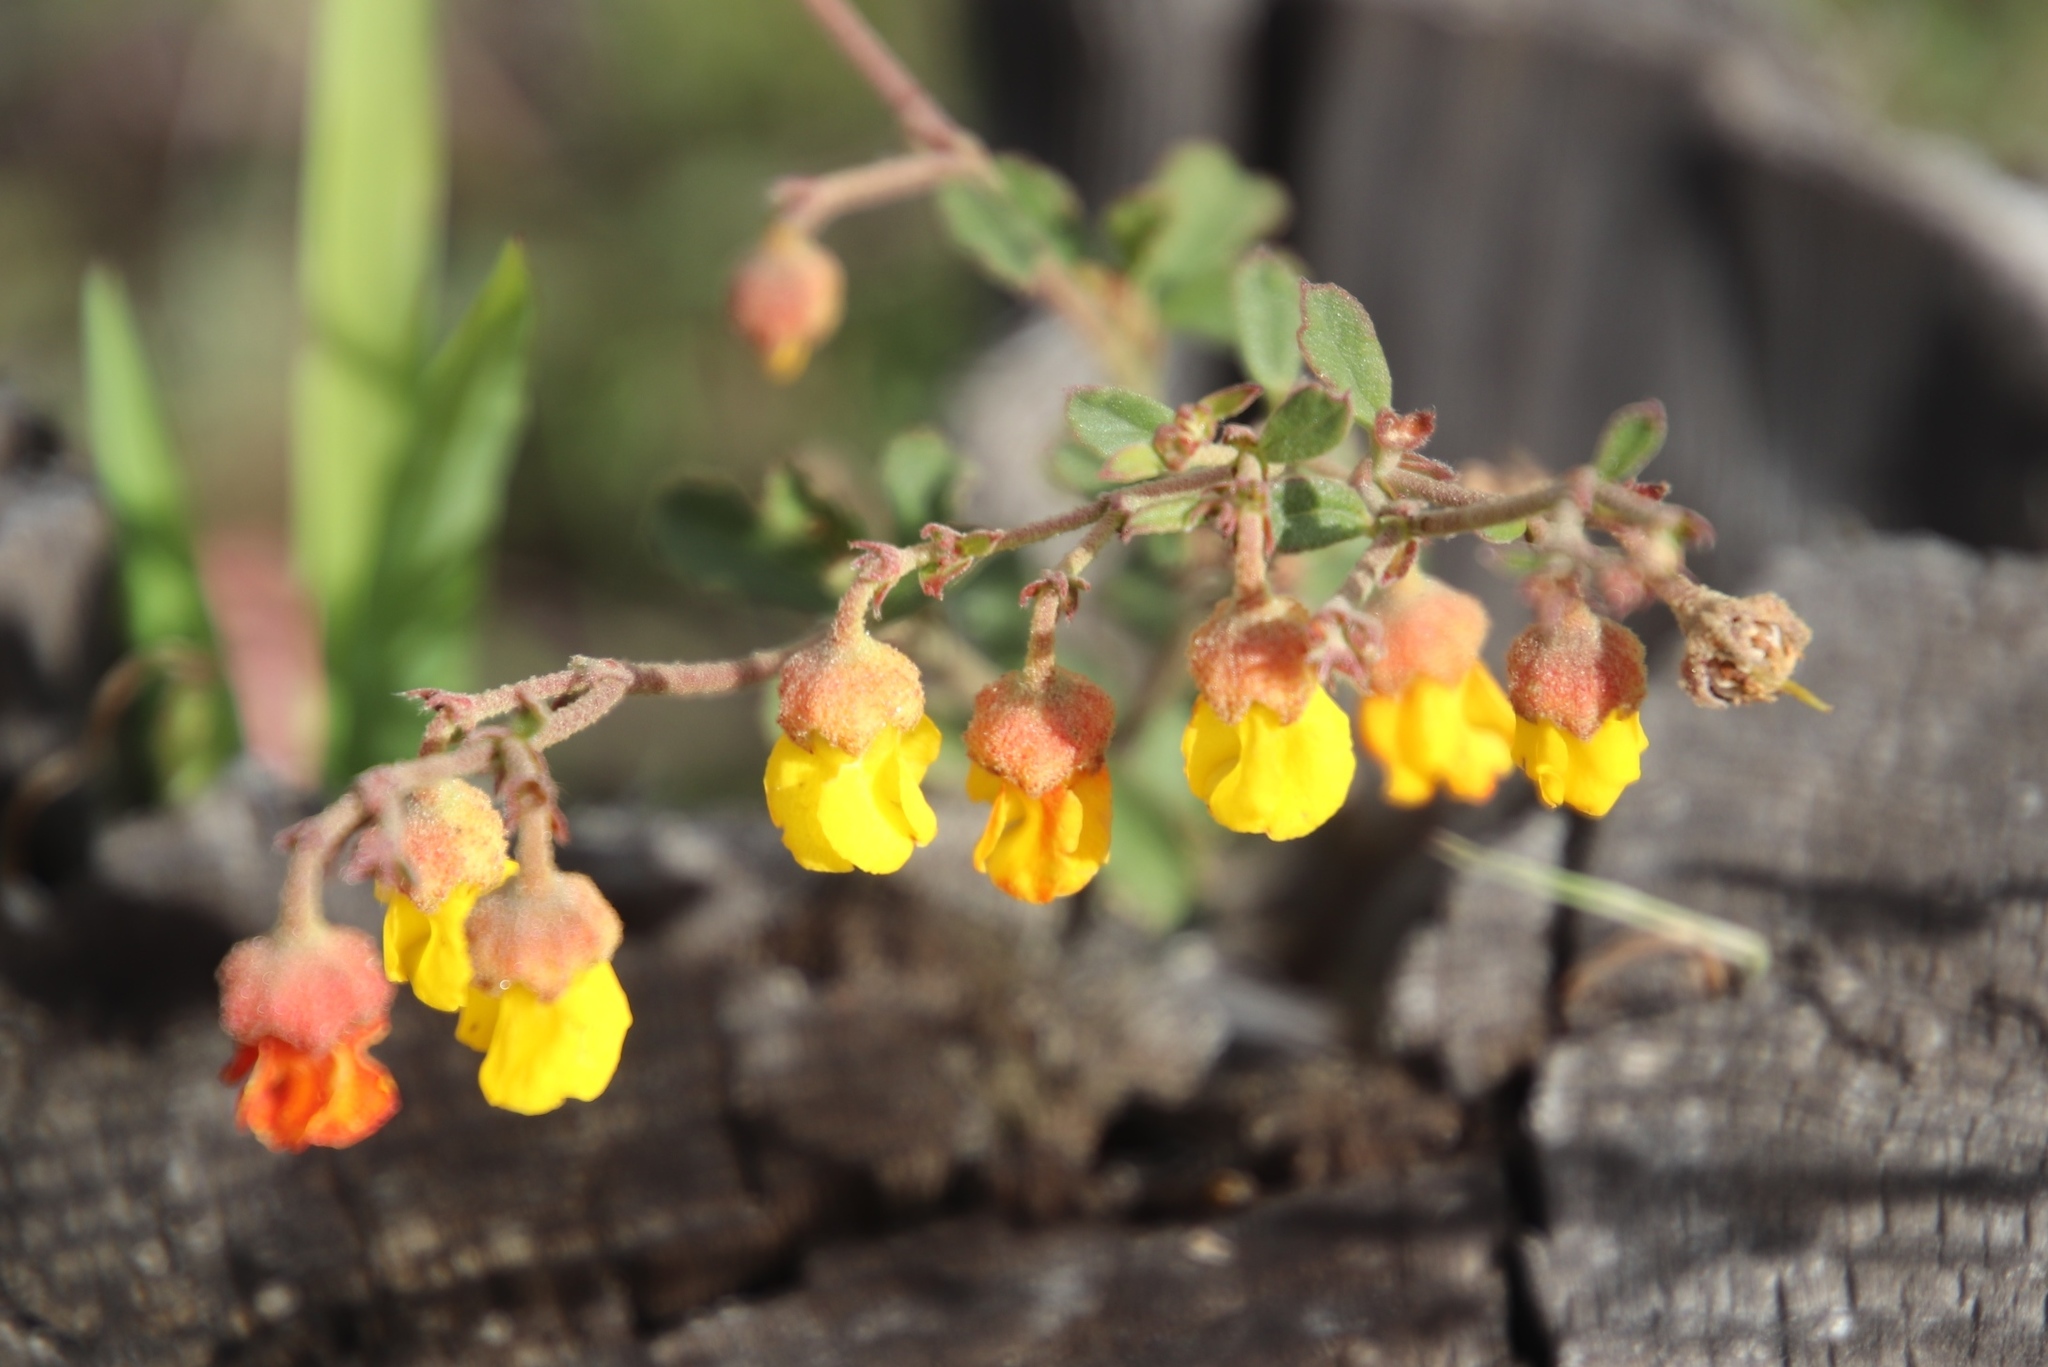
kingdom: Plantae
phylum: Tracheophyta
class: Magnoliopsida
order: Malvales
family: Malvaceae
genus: Hermannia
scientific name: Hermannia multiflora
